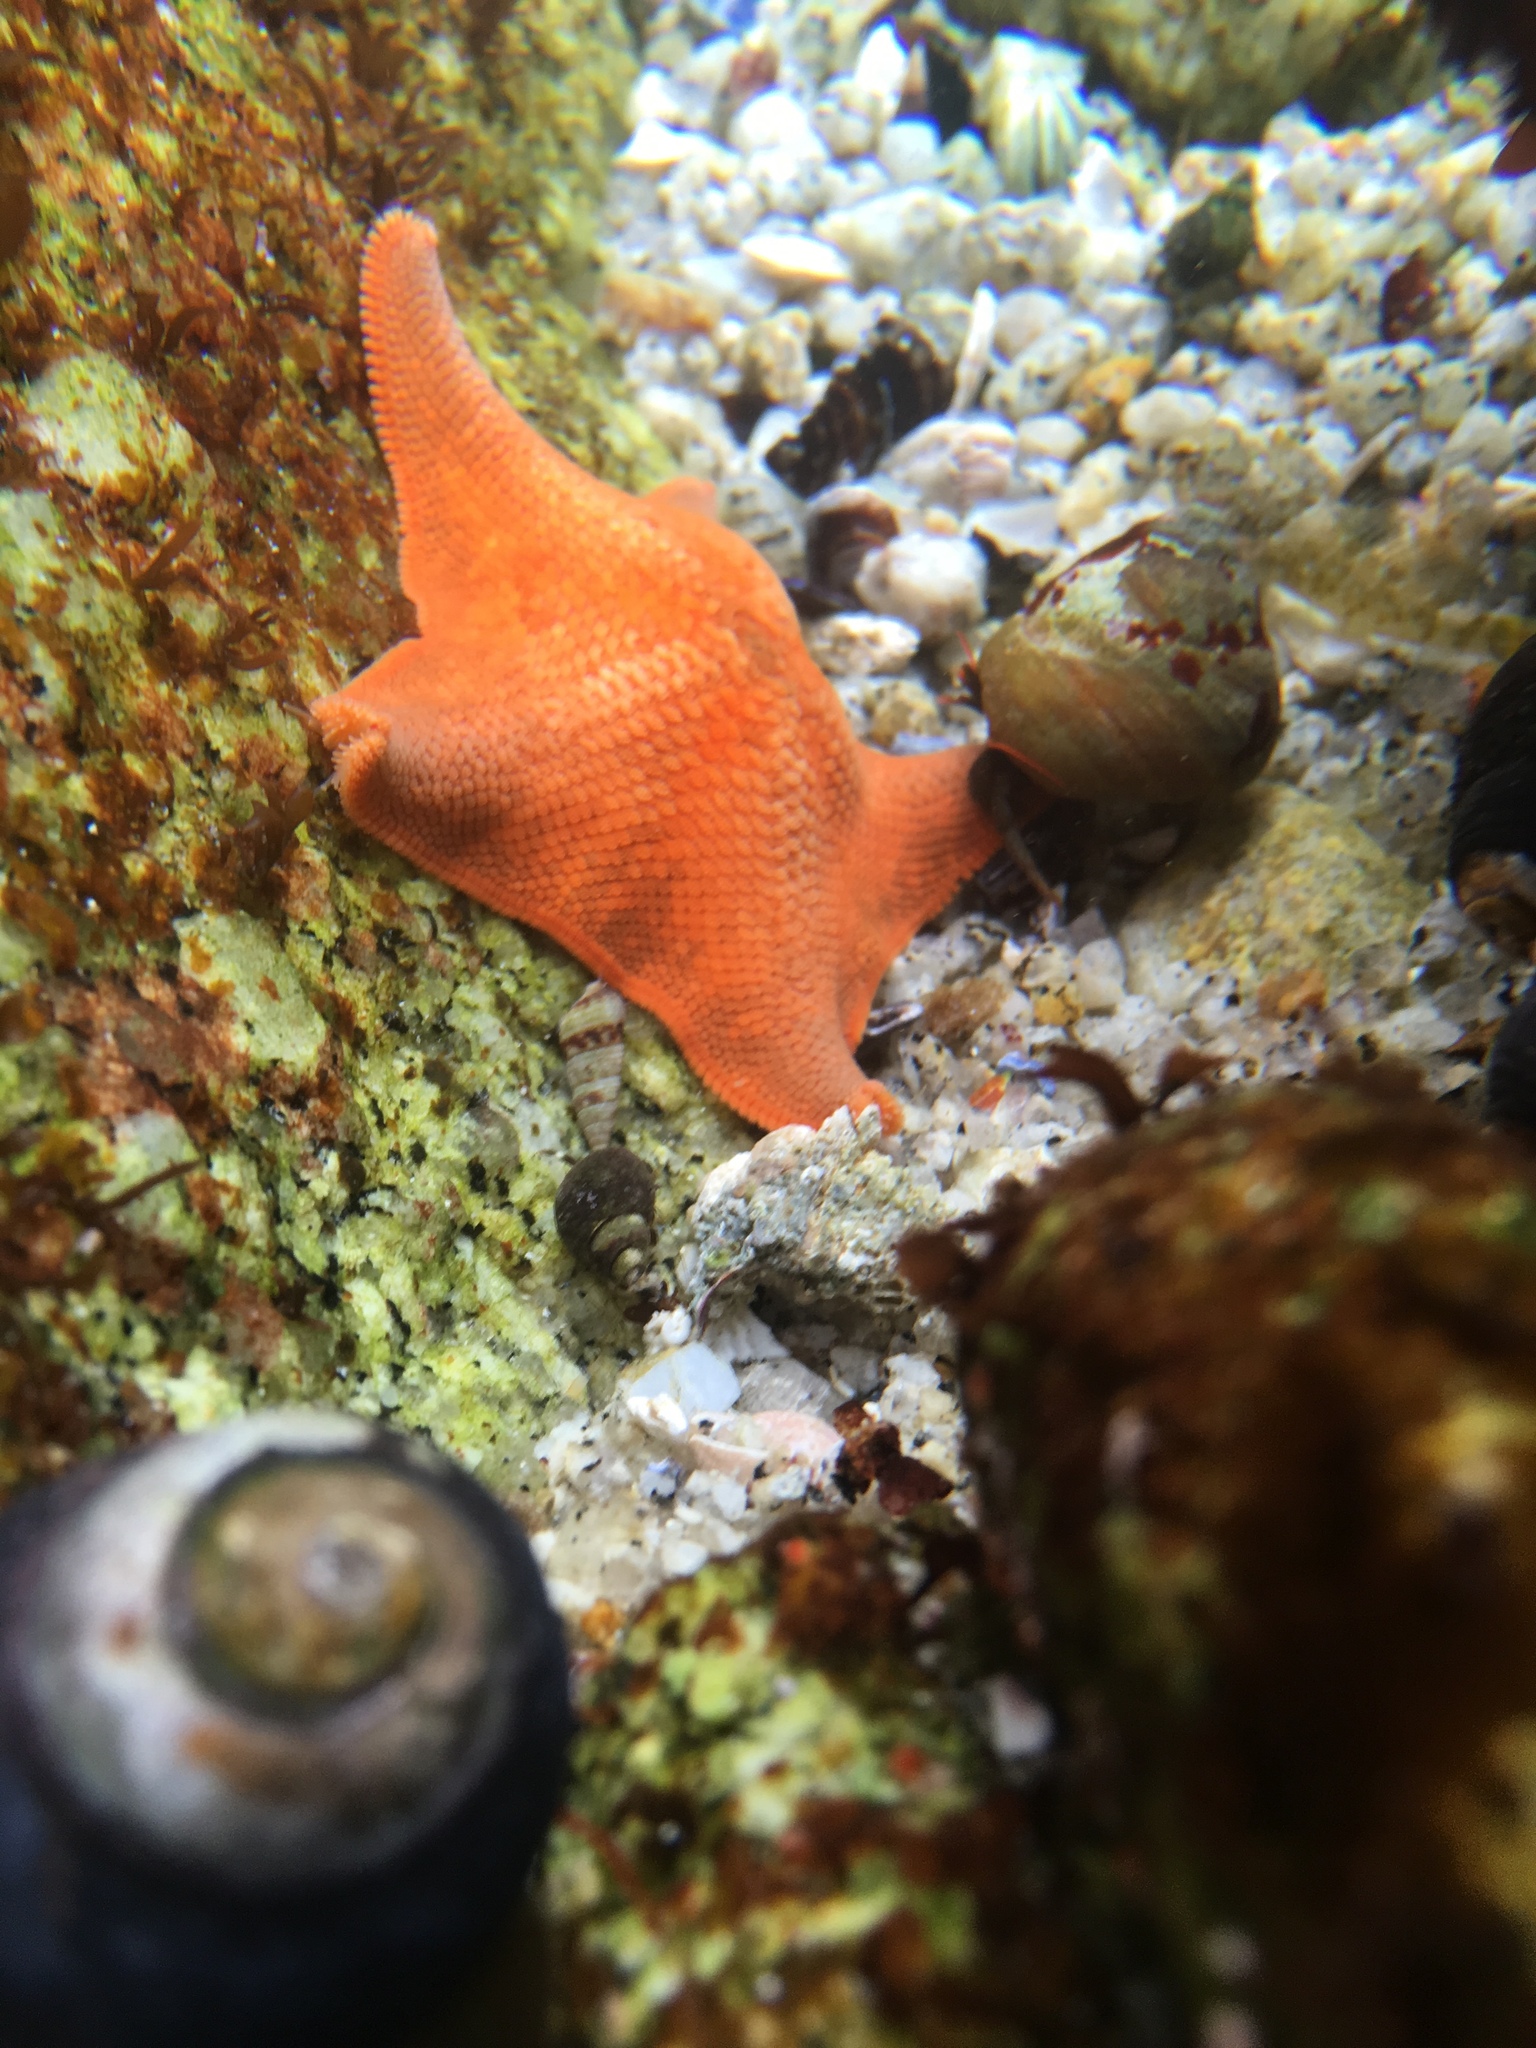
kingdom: Animalia
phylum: Echinodermata
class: Asteroidea
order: Valvatida
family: Asterinidae
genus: Patiria
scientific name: Patiria miniata
